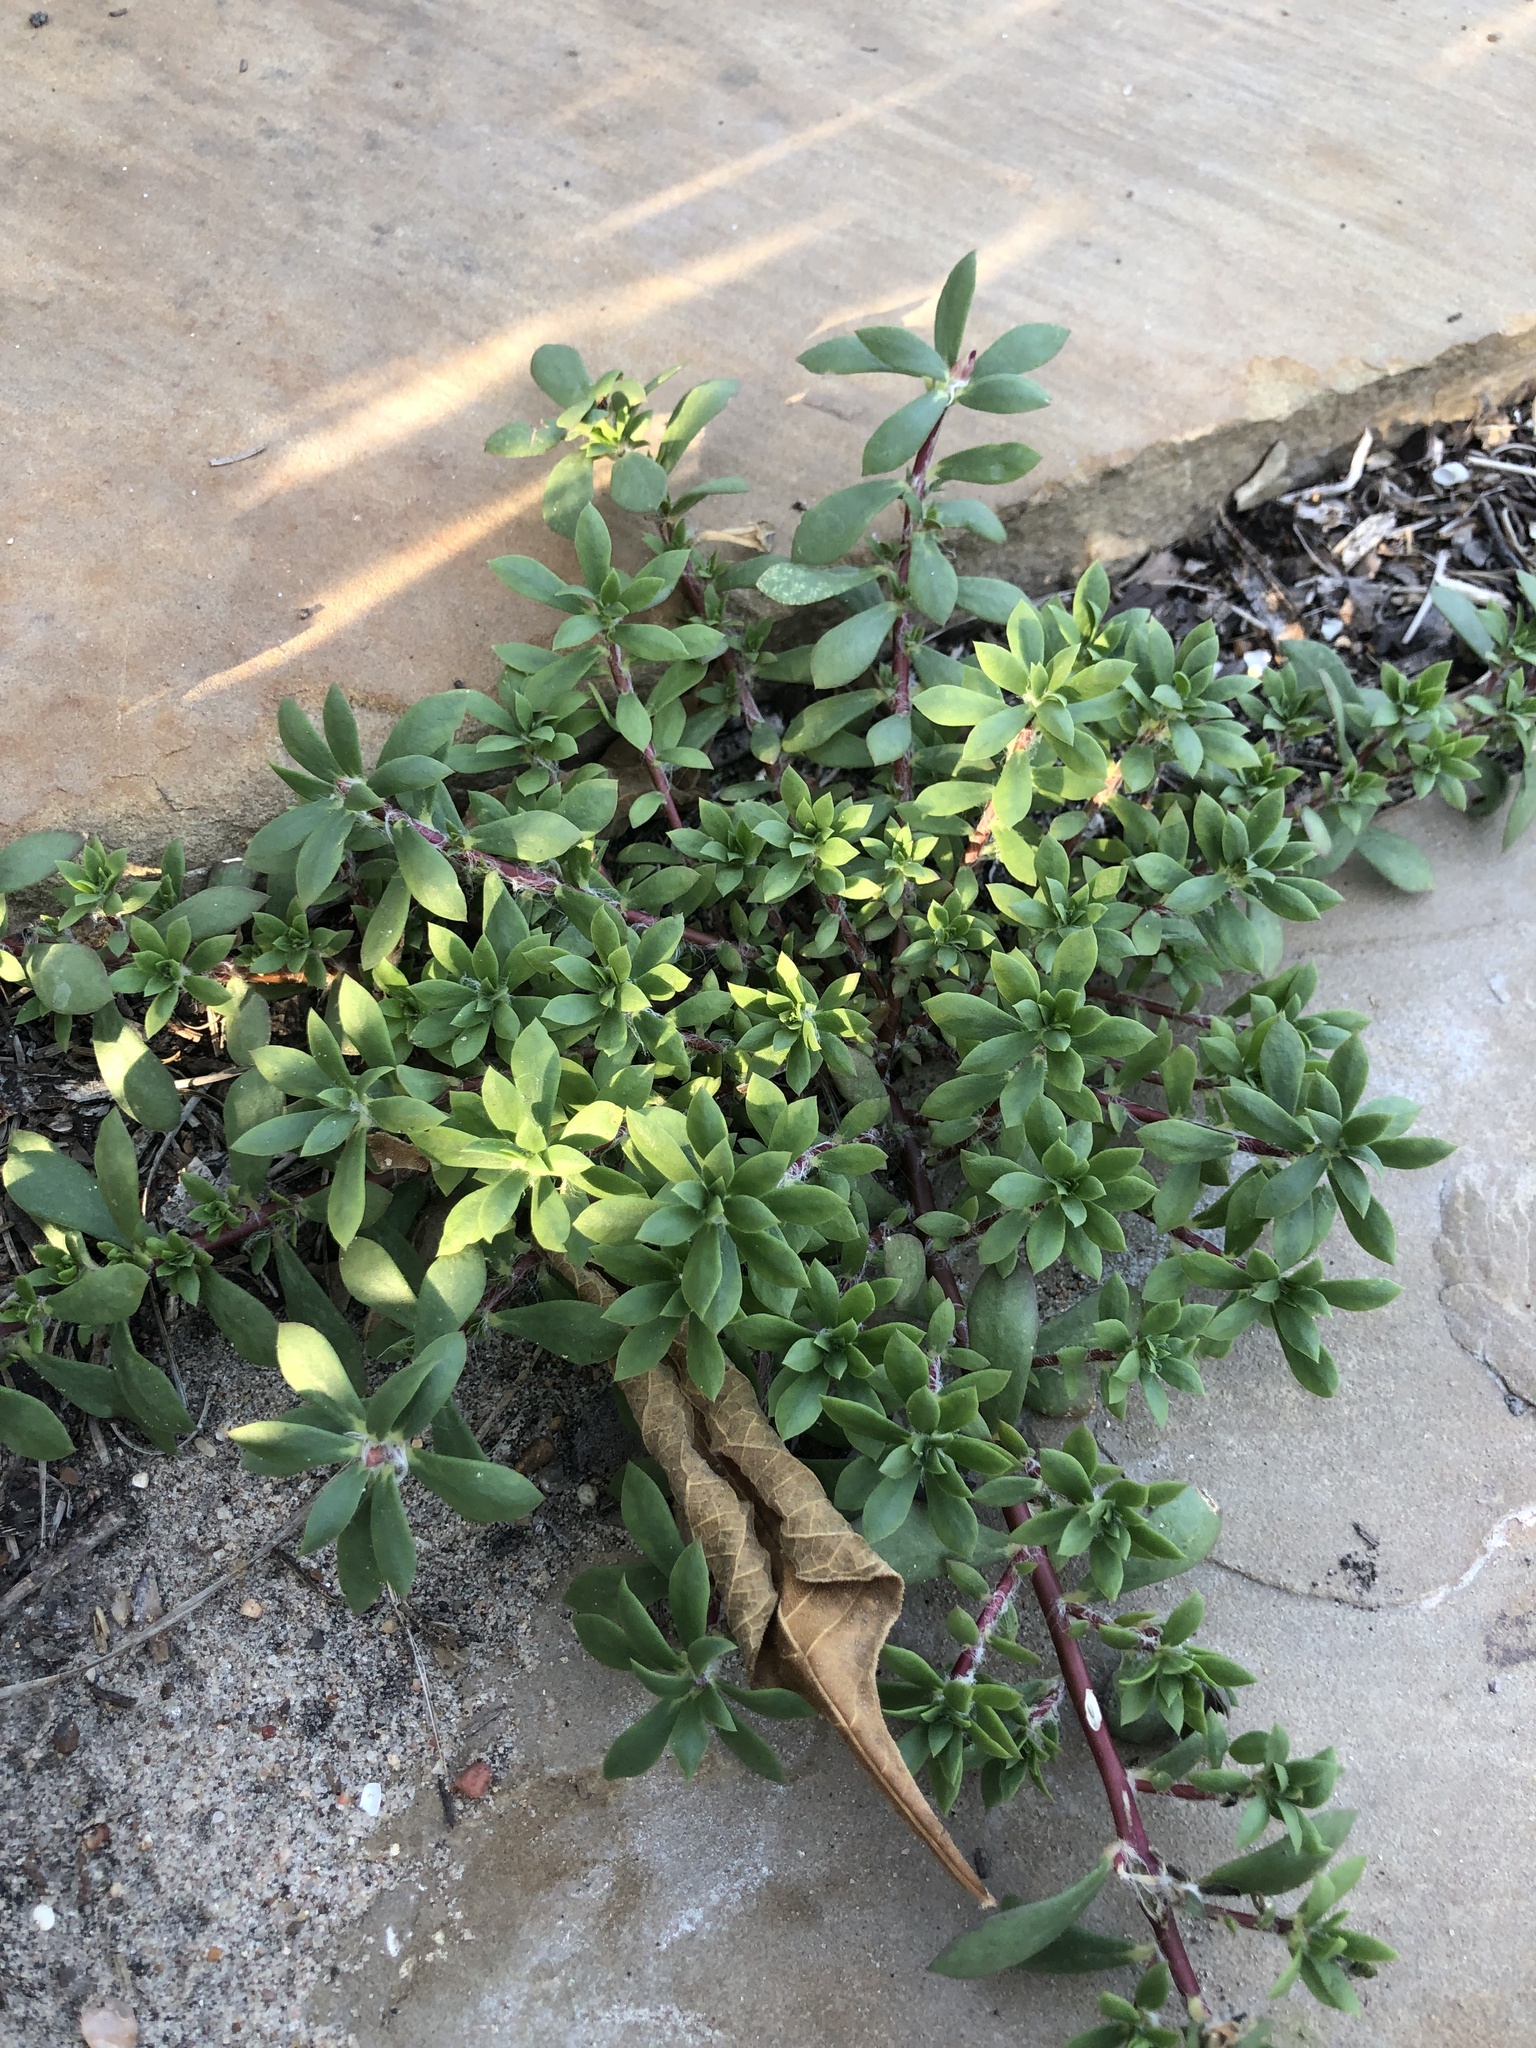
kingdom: Plantae
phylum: Tracheophyta
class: Magnoliopsida
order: Caryophyllales
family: Portulacaceae
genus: Portulaca
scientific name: Portulaca amilis
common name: Paraguayan purslane
